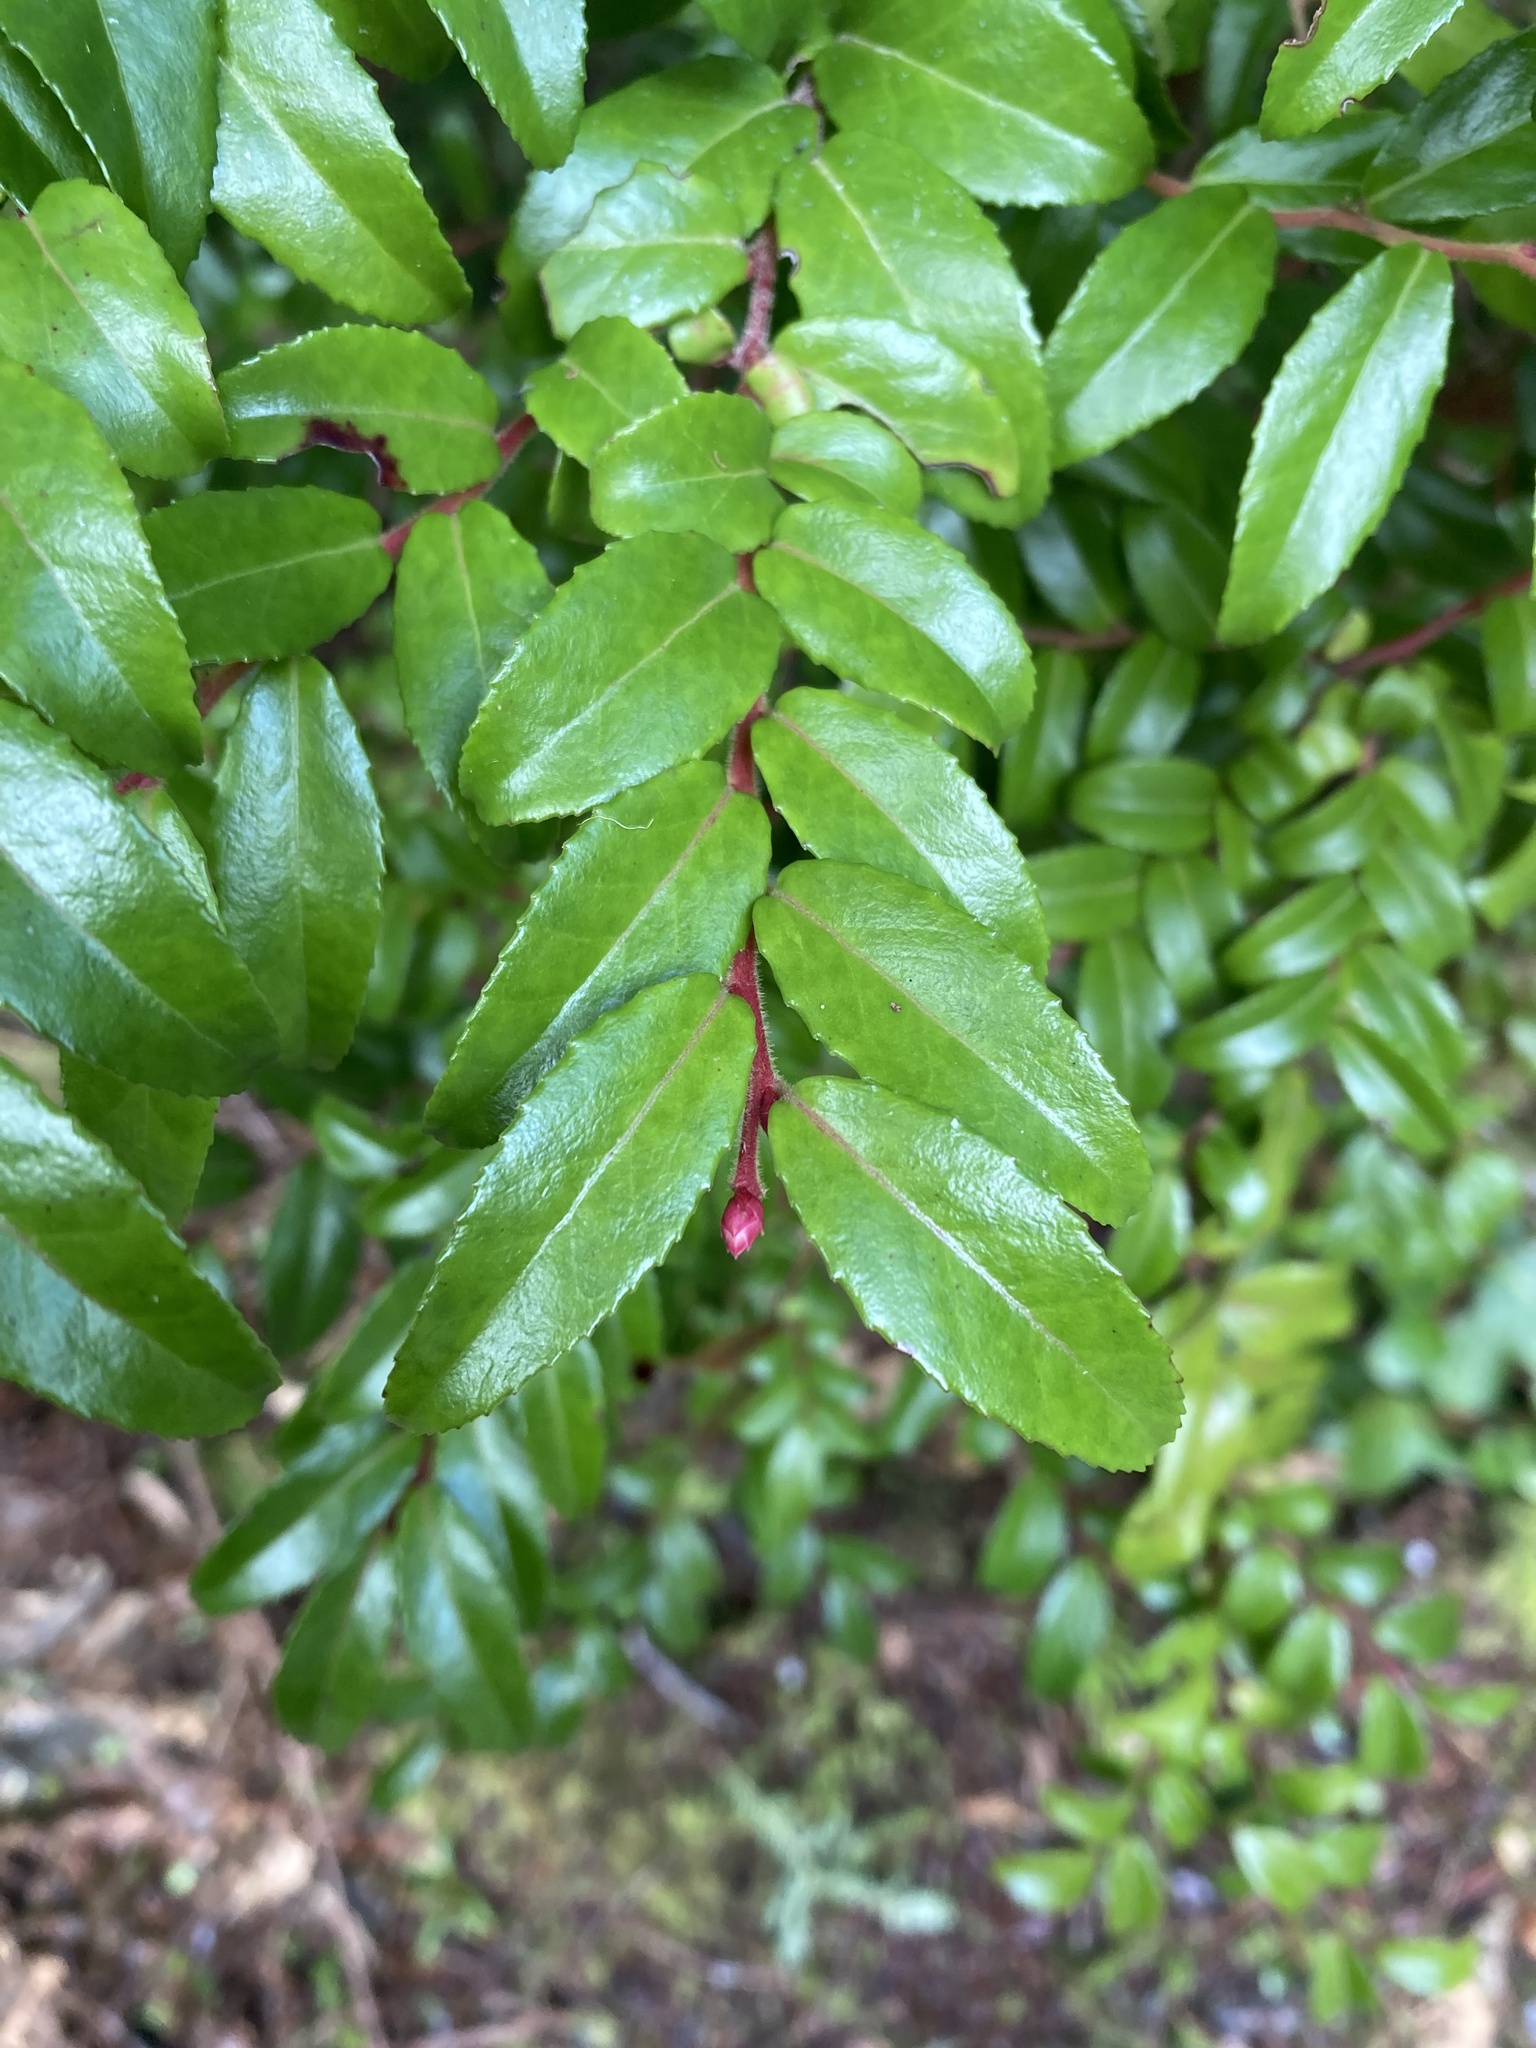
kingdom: Plantae
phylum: Tracheophyta
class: Magnoliopsida
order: Ericales
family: Ericaceae
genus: Vaccinium
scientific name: Vaccinium ovatum
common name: California-huckleberry
